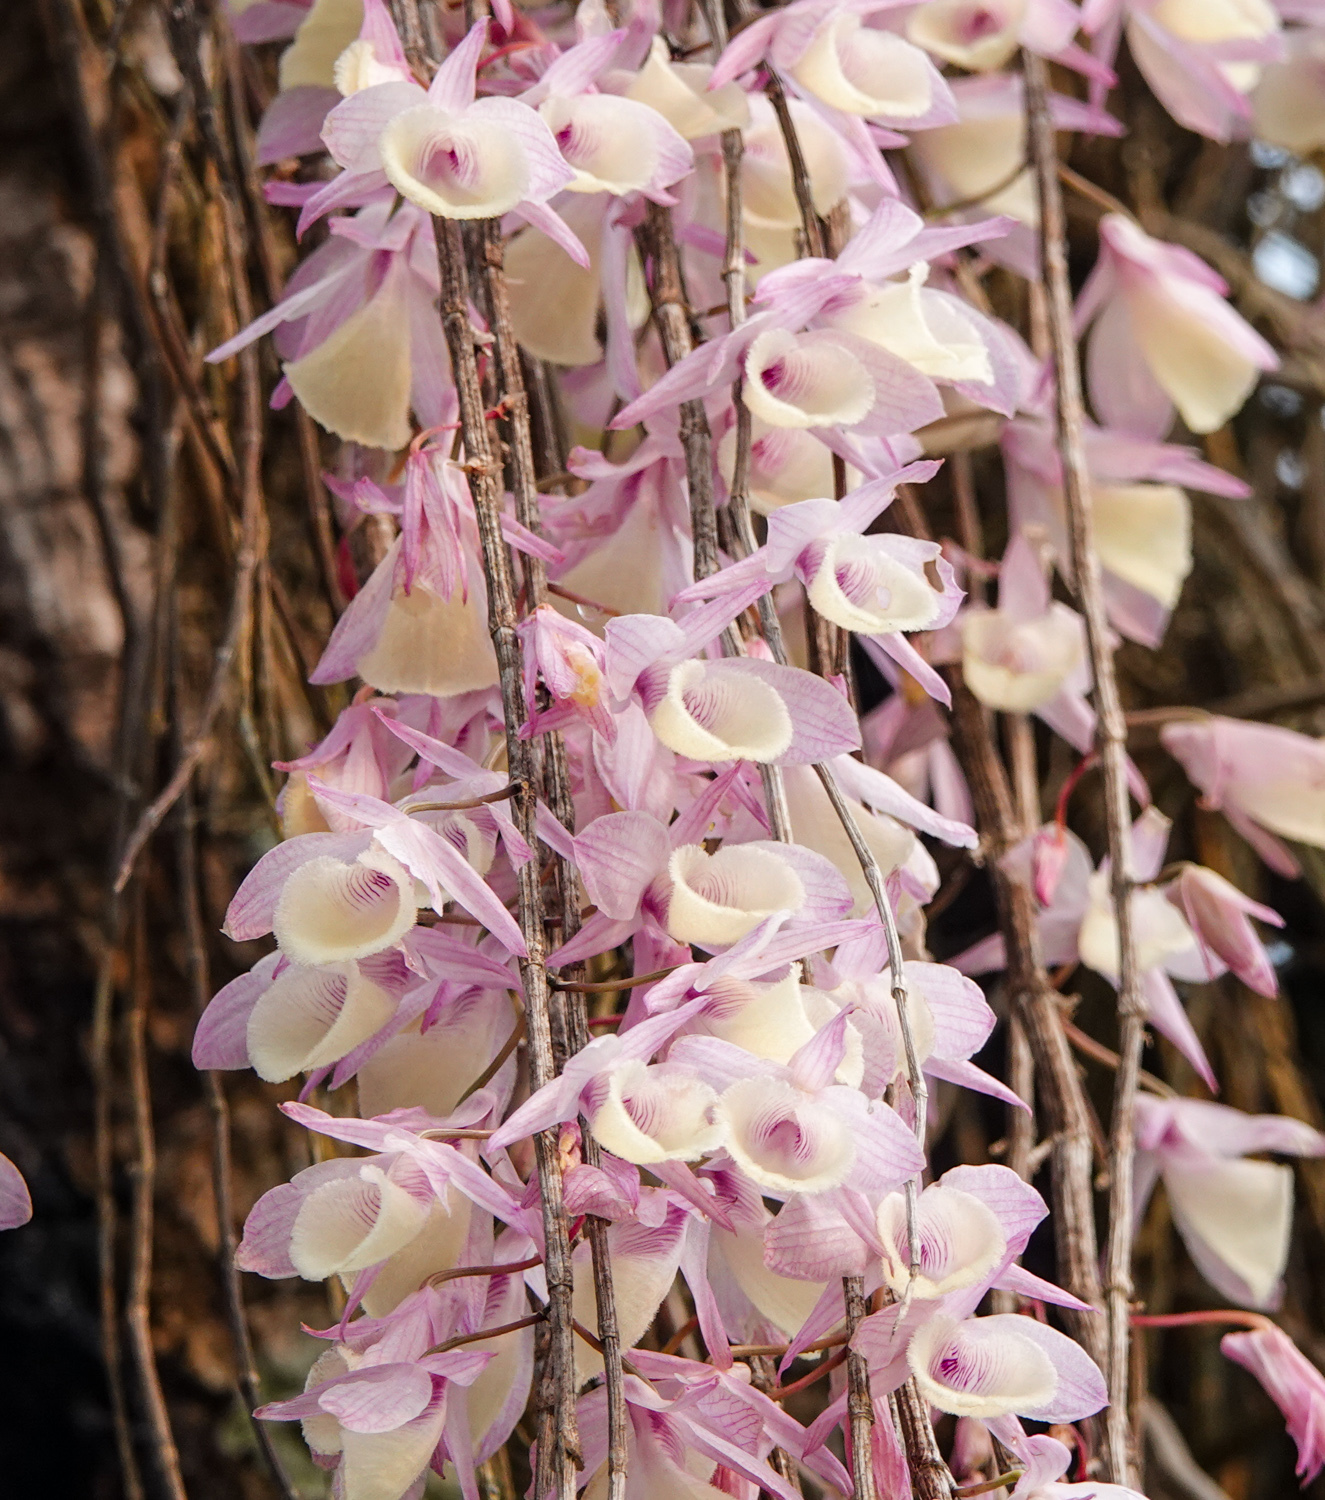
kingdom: Plantae
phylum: Tracheophyta
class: Liliopsida
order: Asparagales
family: Orchidaceae
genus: Dendrobium
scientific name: Dendrobium aphyllum
